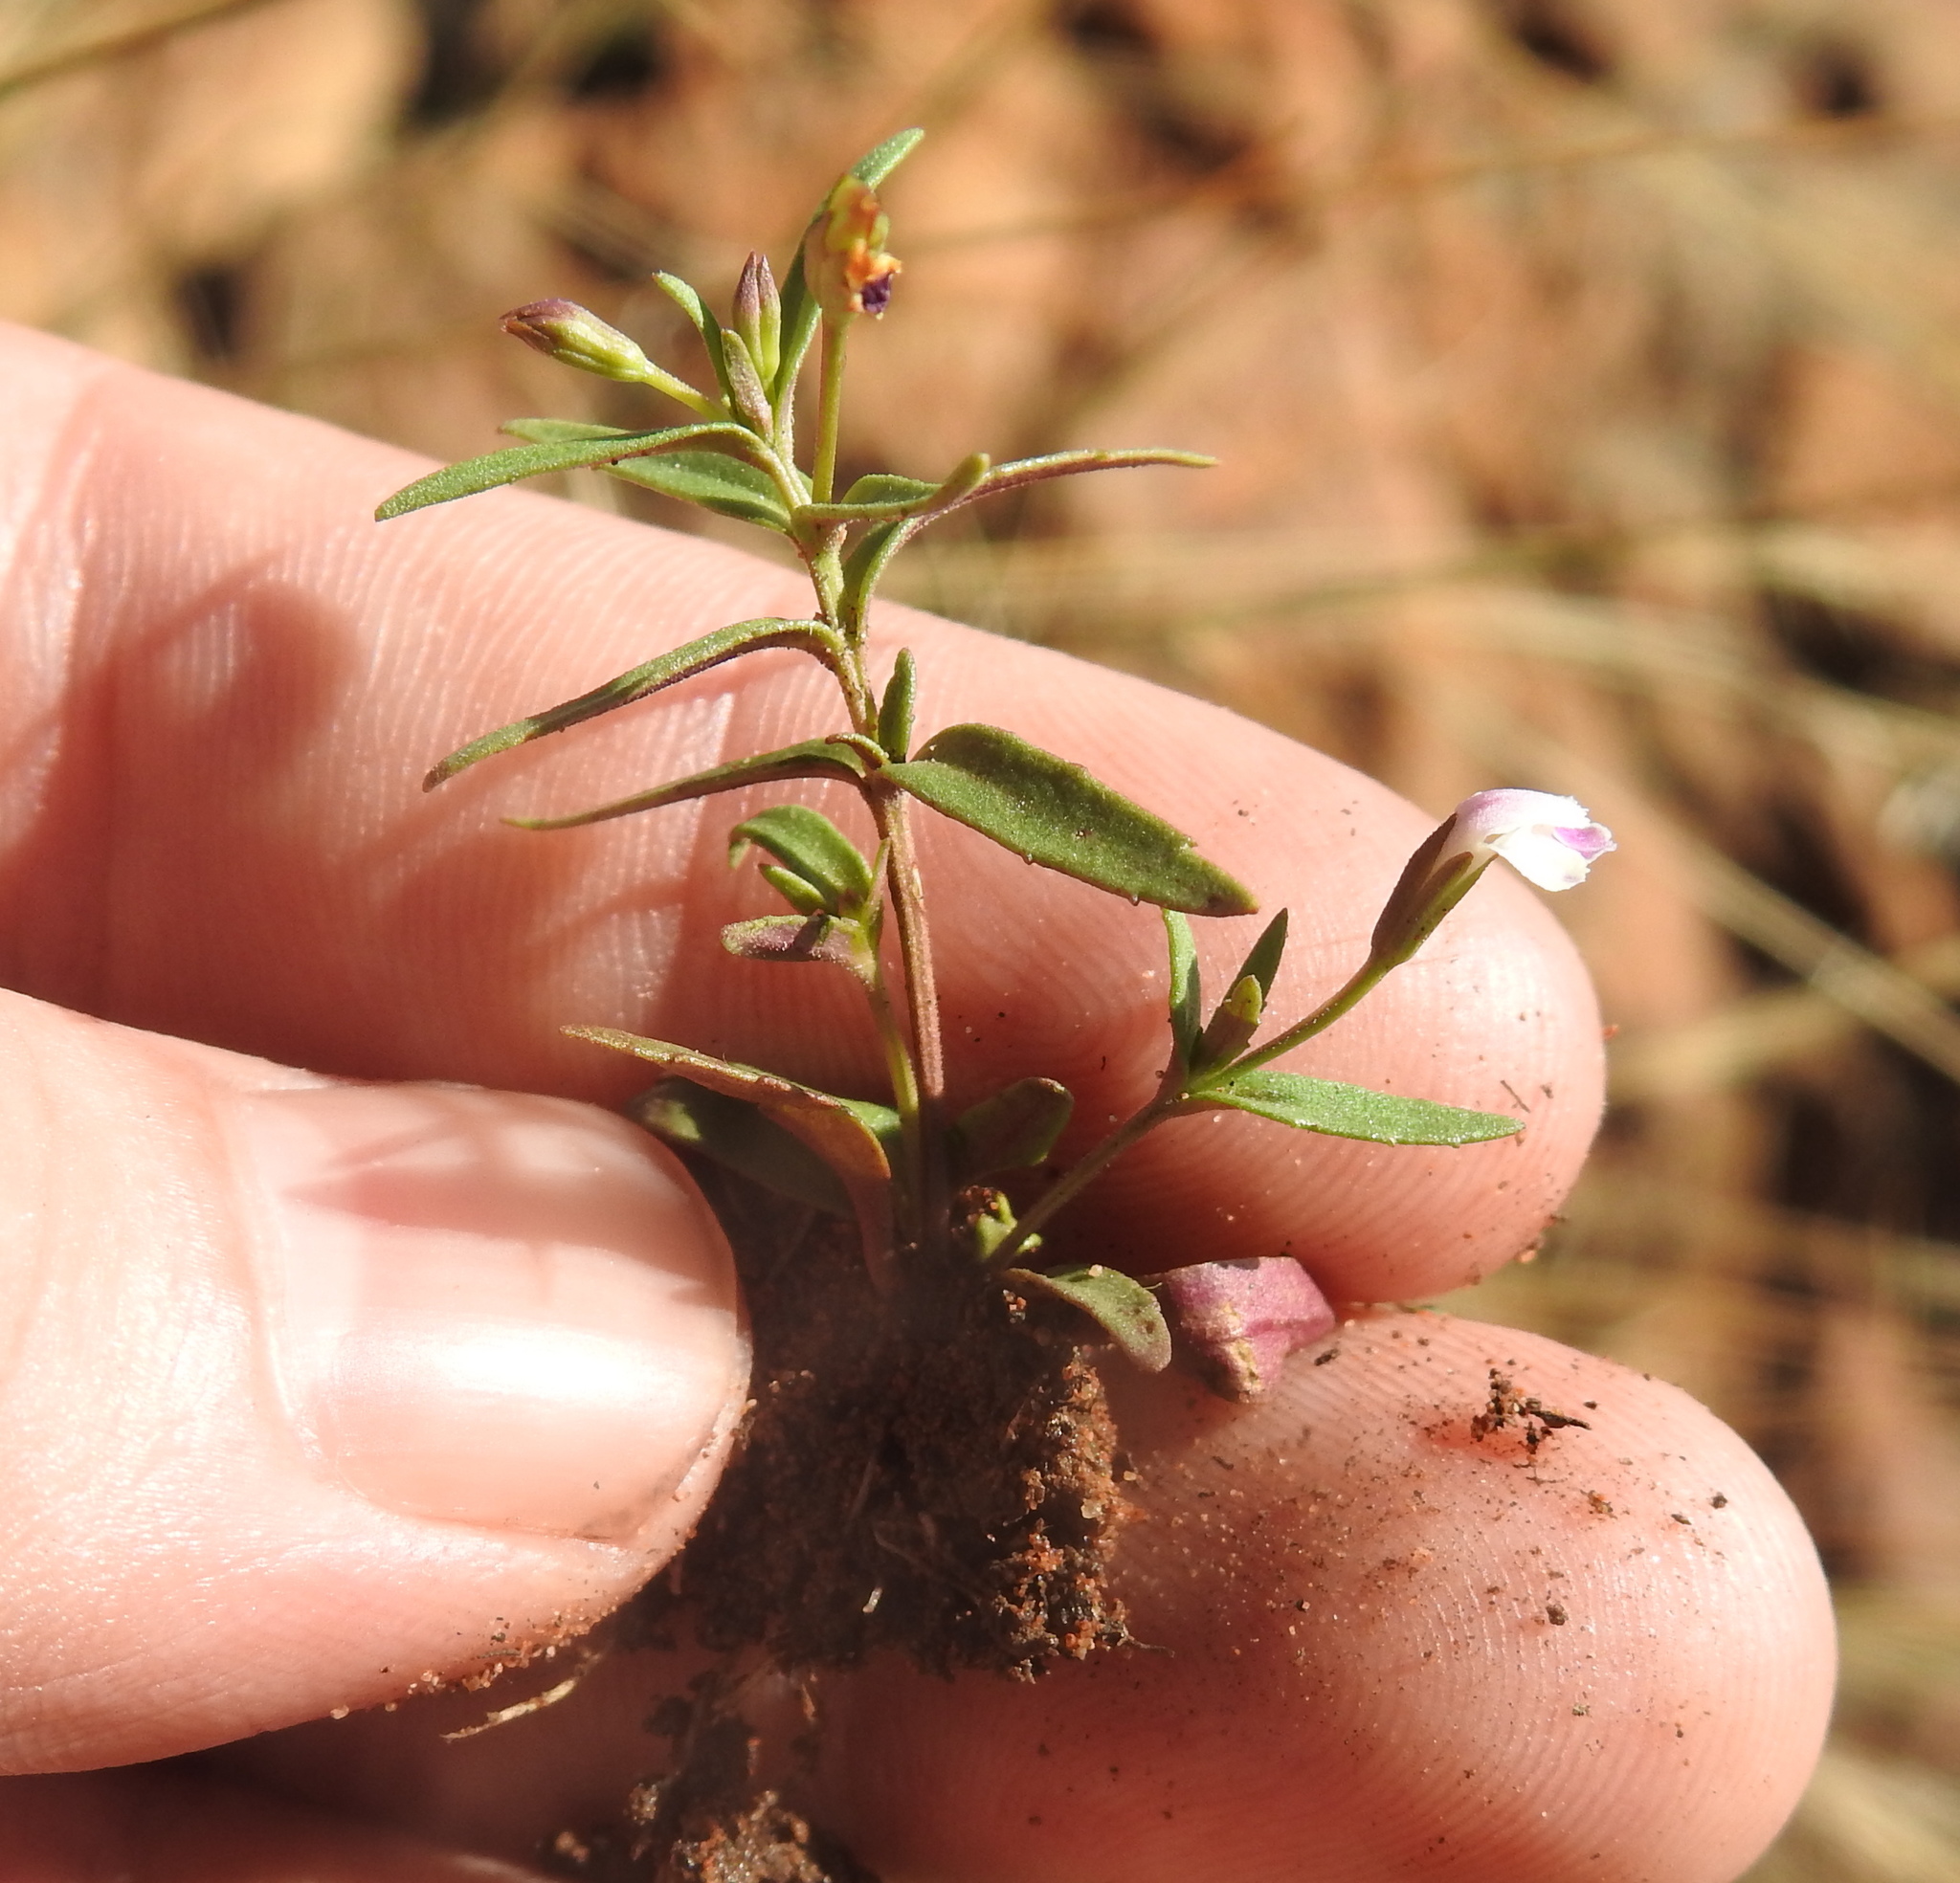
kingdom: Plantae
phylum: Tracheophyta
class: Magnoliopsida
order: Lamiales
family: Linderniaceae
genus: Linderniella
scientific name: Linderniella nana
